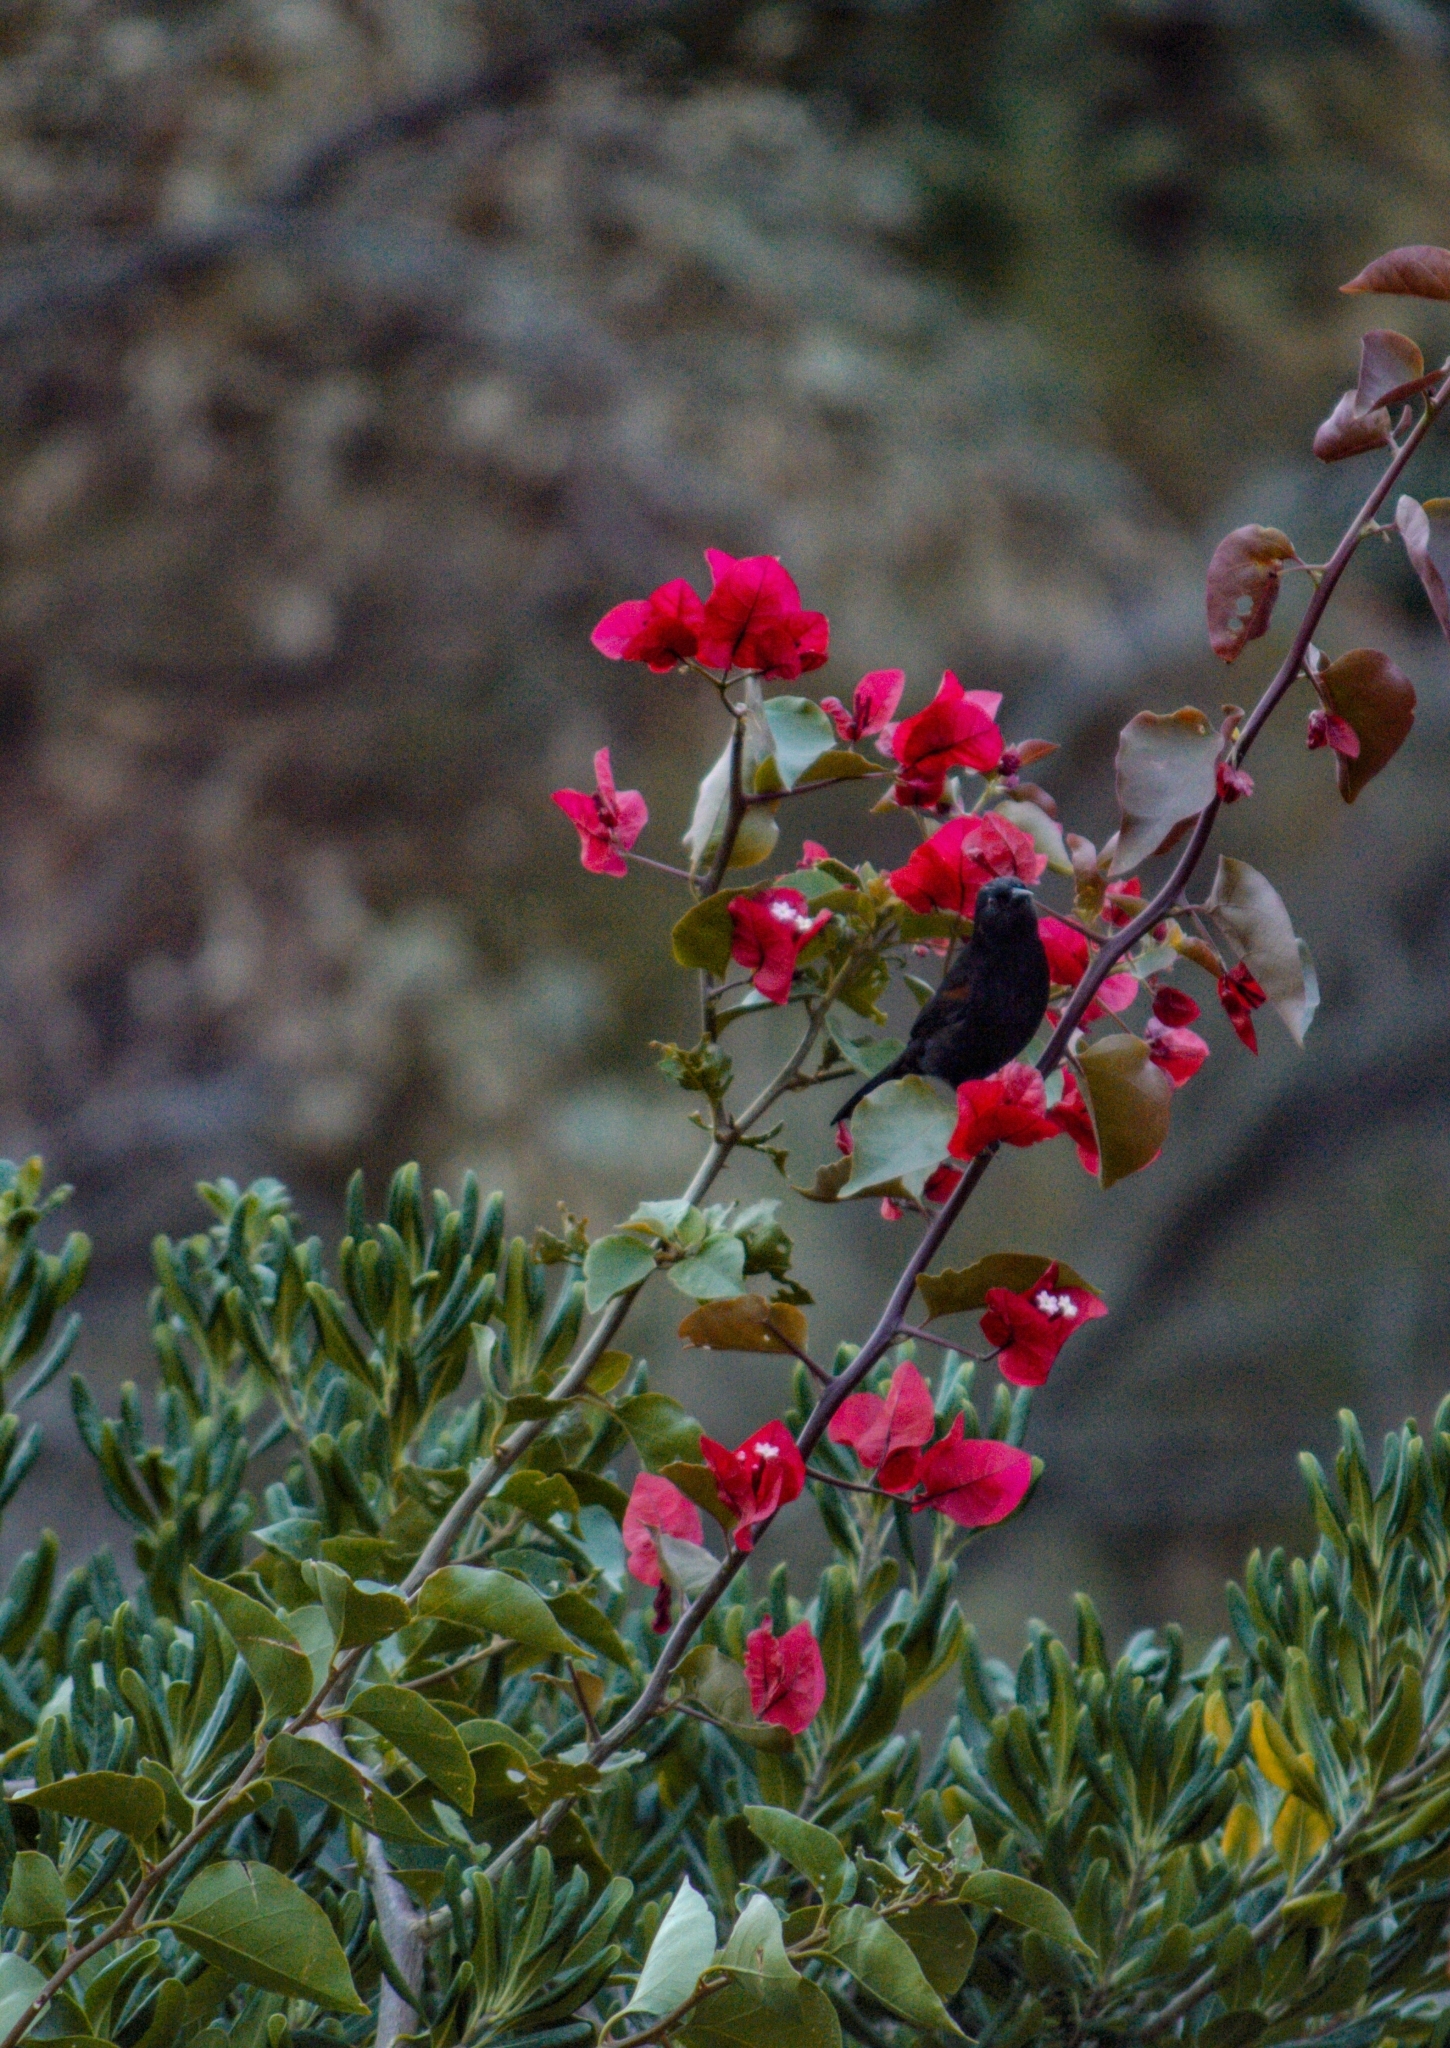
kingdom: Animalia
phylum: Chordata
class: Aves
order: Passeriformes
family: Icteridae
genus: Icterus
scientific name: Icterus cayanensis
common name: Epaulet oriole
